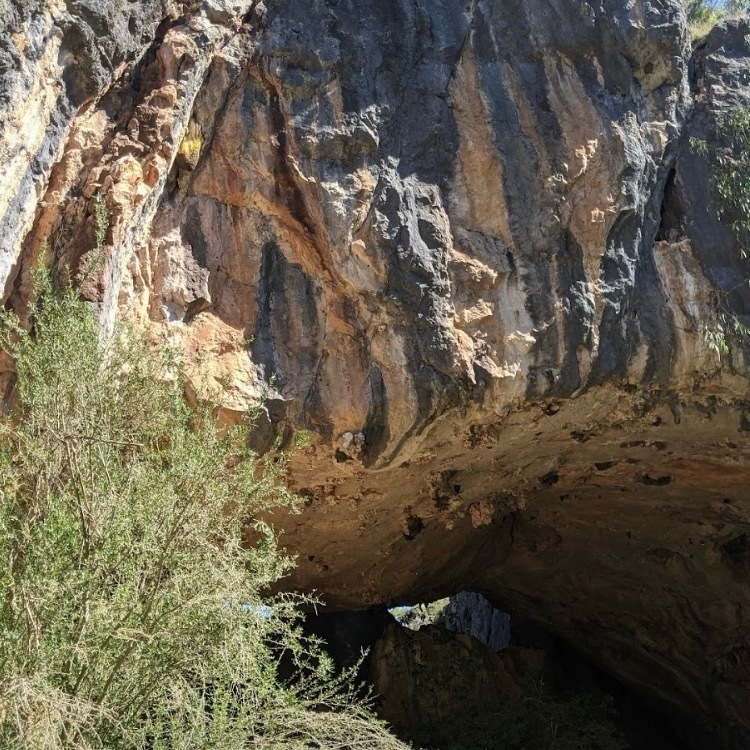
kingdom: Animalia
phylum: Arthropoda
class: Insecta
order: Hymenoptera
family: Apidae
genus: Apis
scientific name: Apis mellifera
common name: Honey bee
